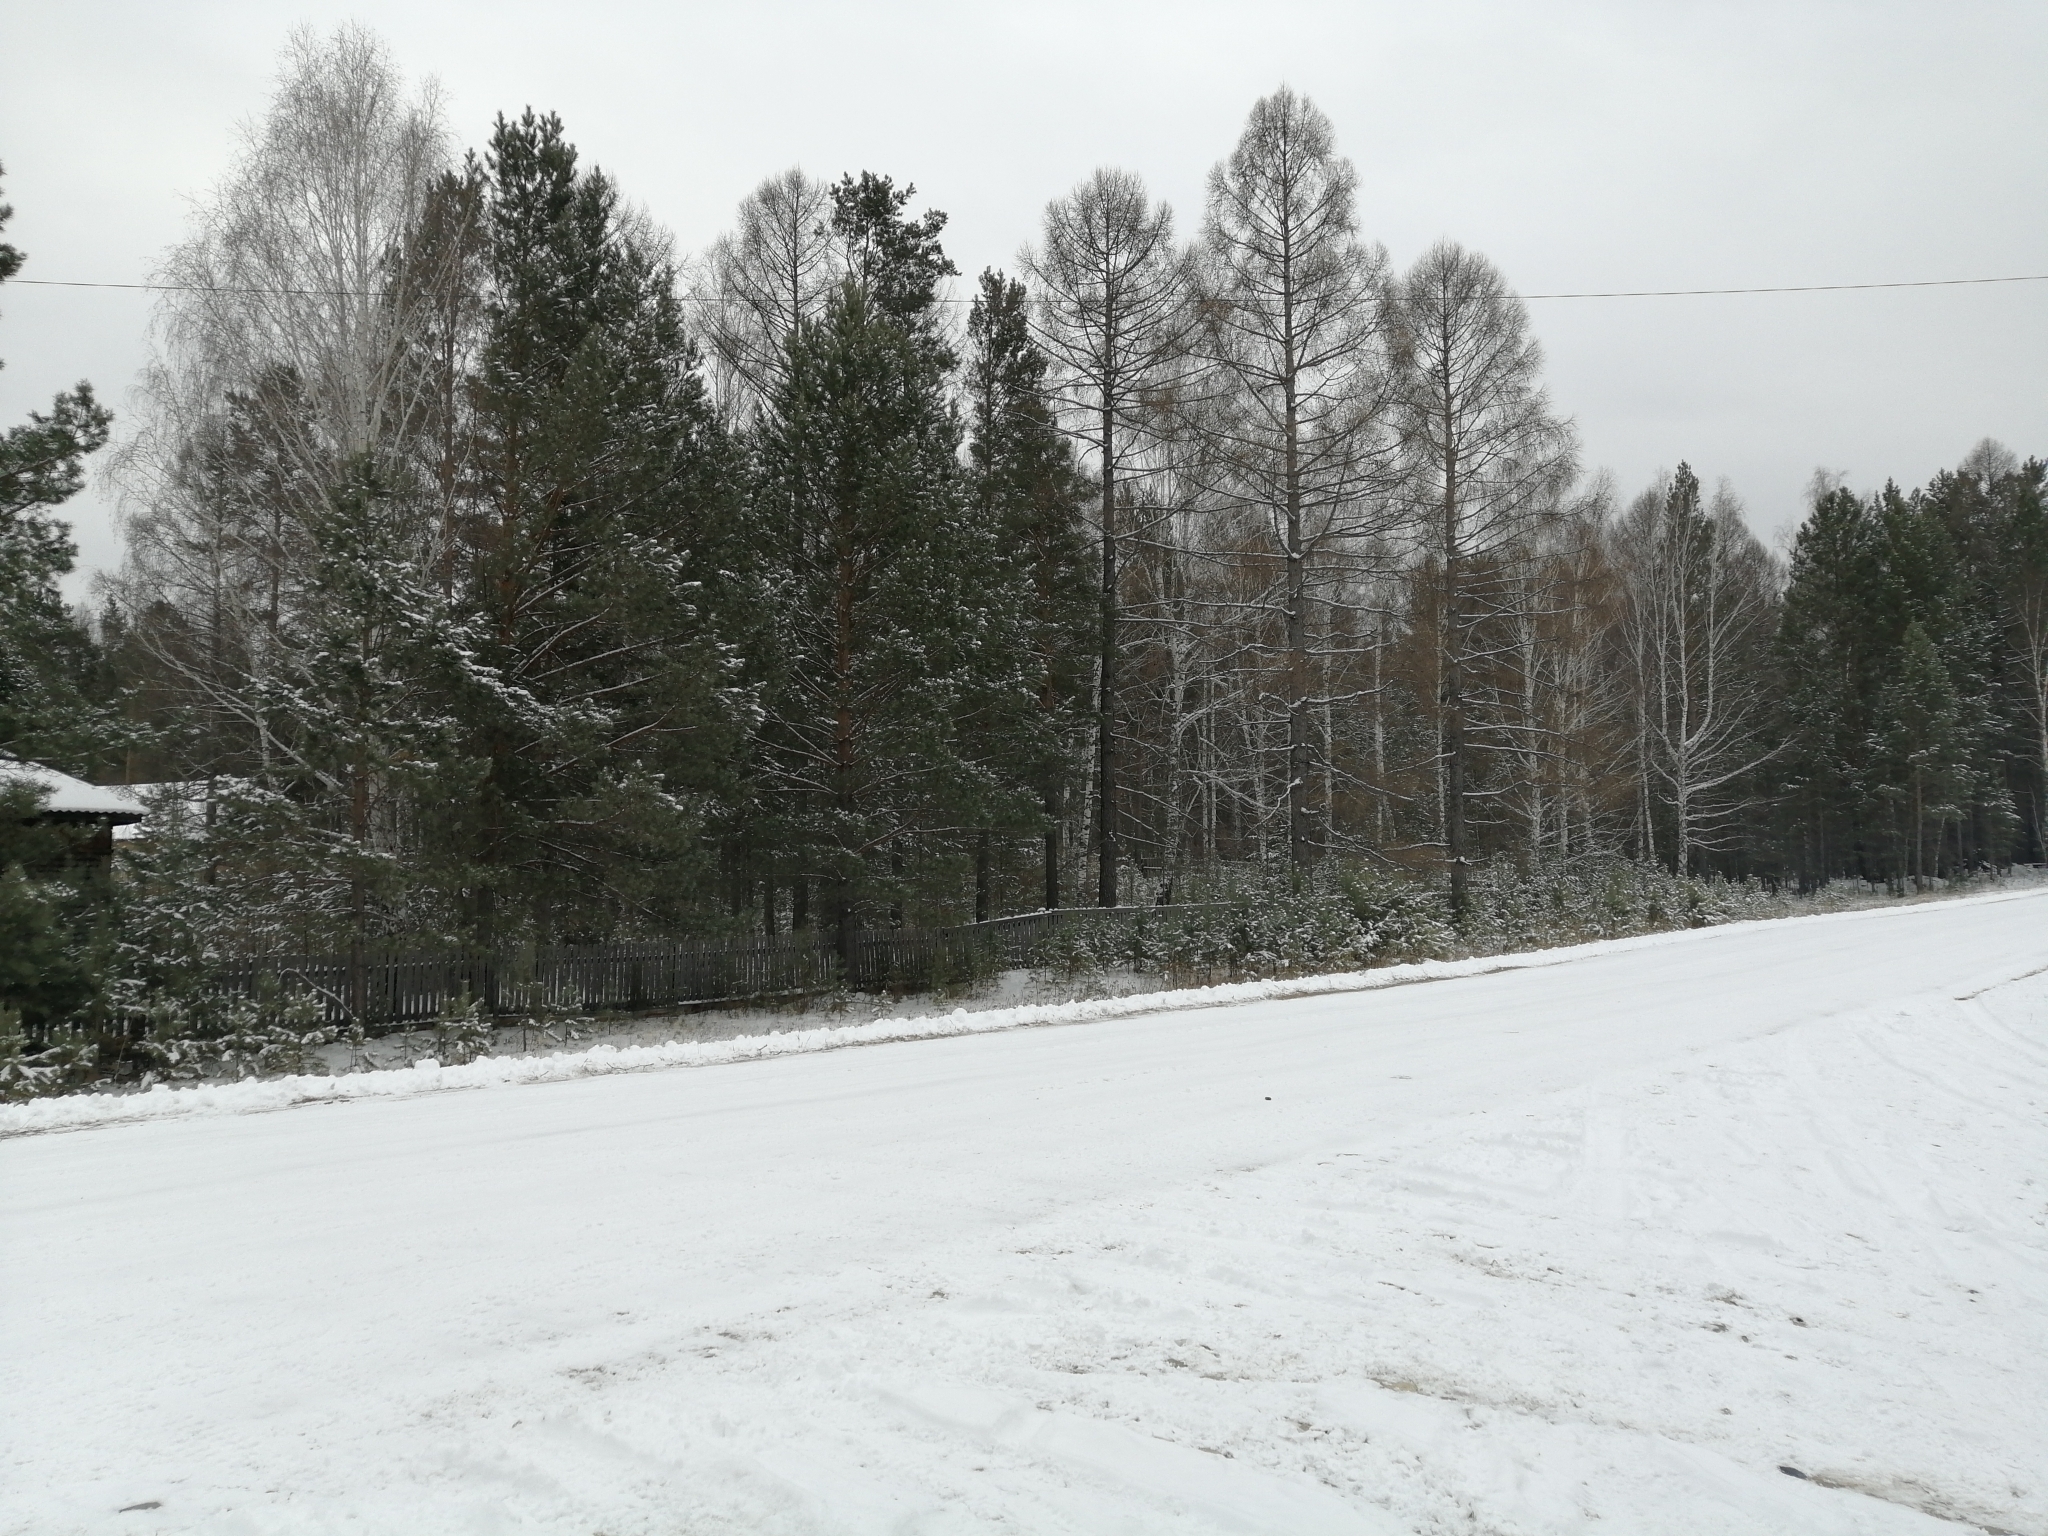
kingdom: Plantae
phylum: Tracheophyta
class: Pinopsida
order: Pinales
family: Pinaceae
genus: Larix
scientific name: Larix sibirica
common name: Siberian larch
